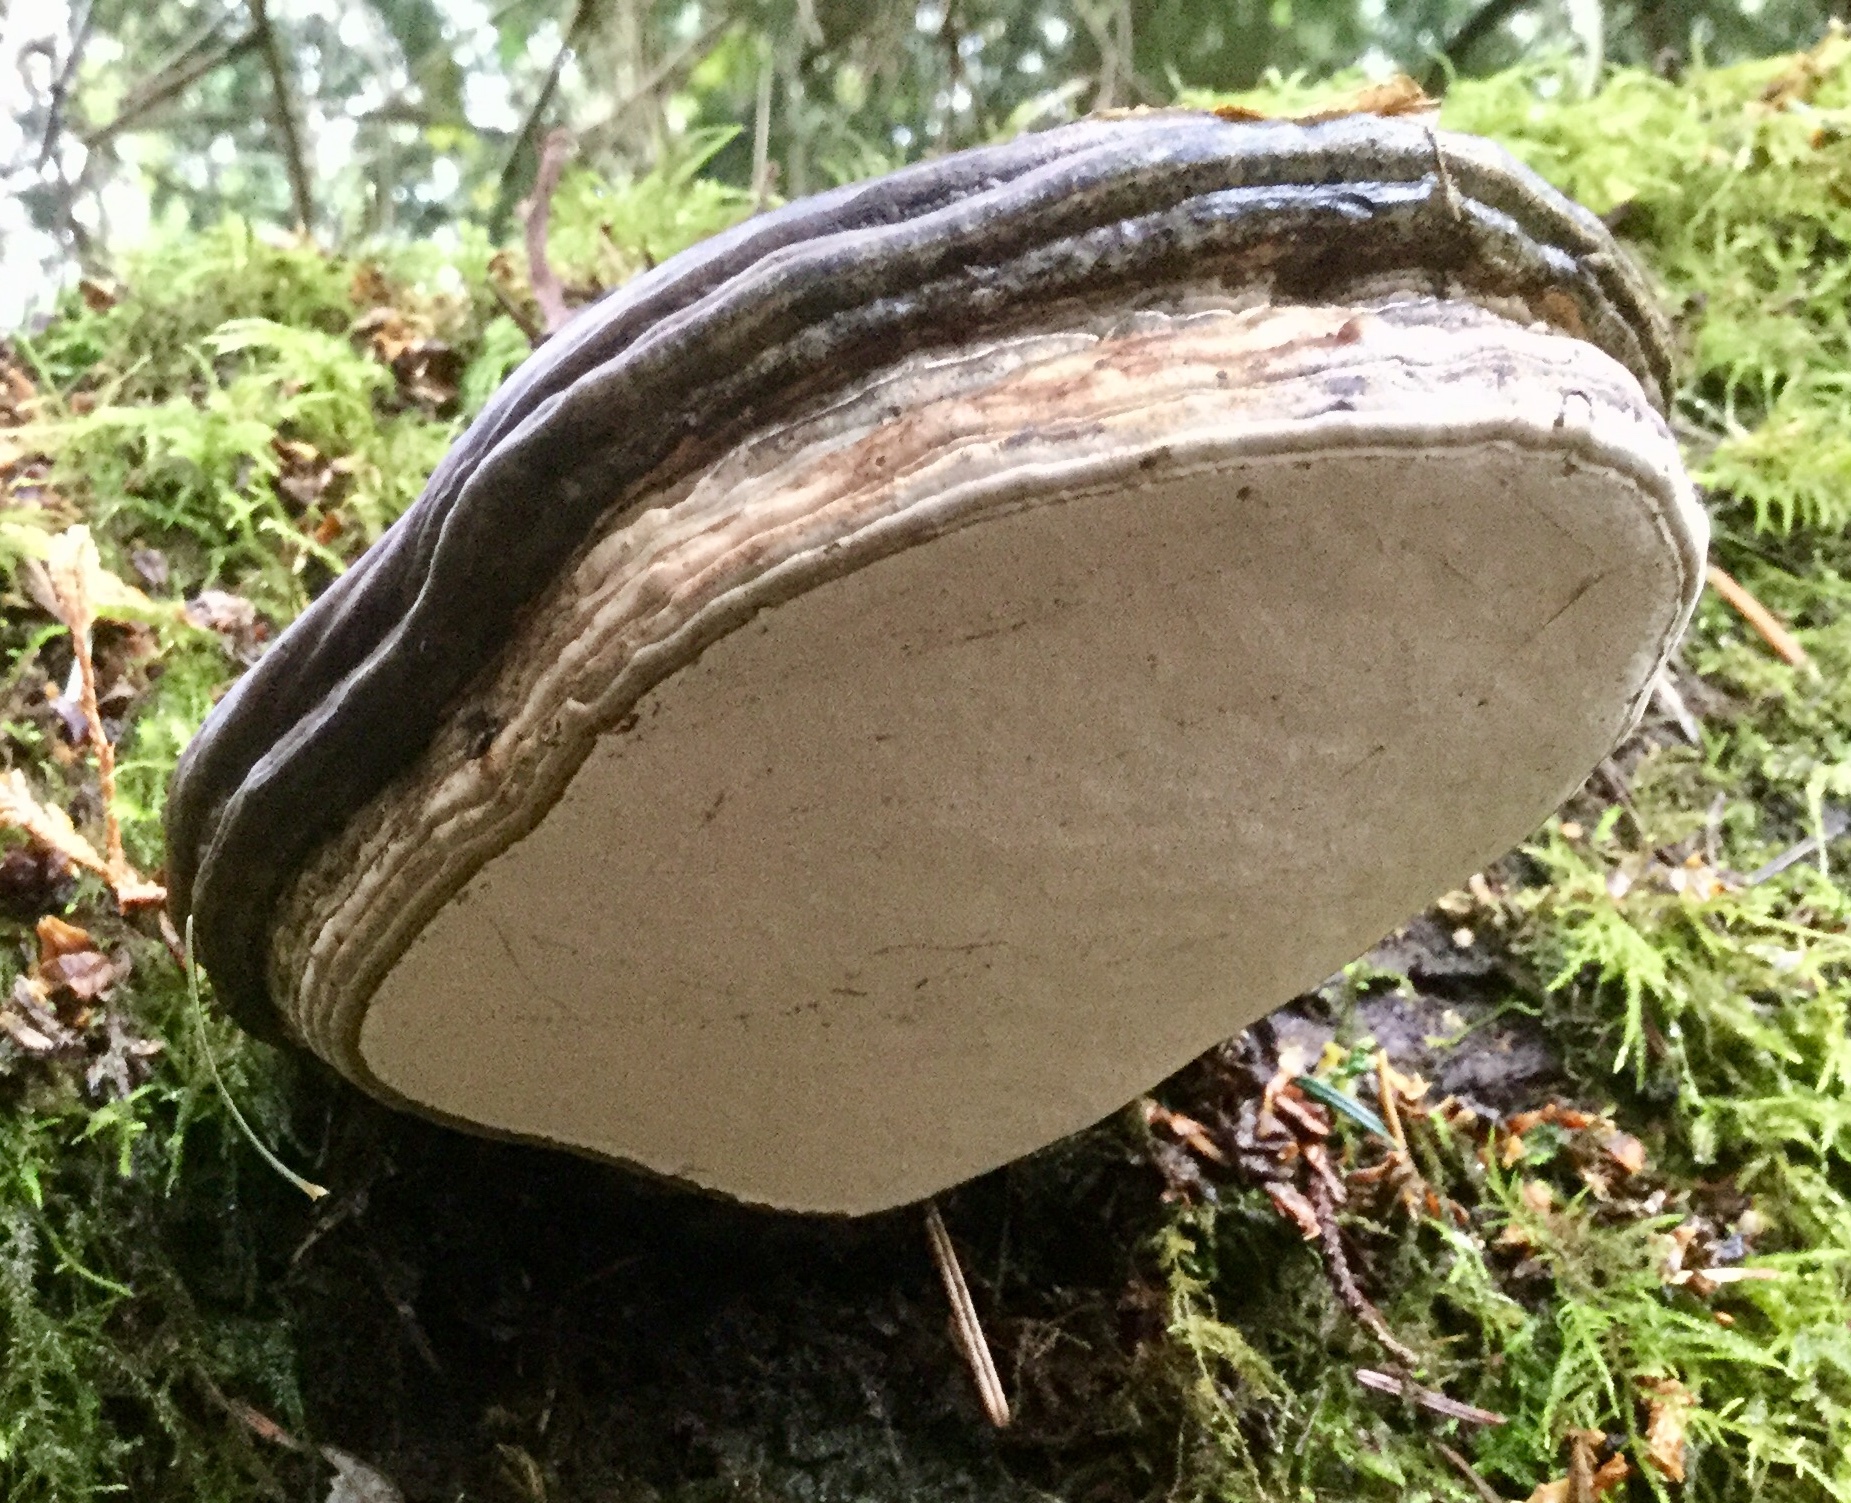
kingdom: Fungi
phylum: Basidiomycota
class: Agaricomycetes
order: Polyporales
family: Polyporaceae
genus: Ganoderma
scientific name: Ganoderma brownii
